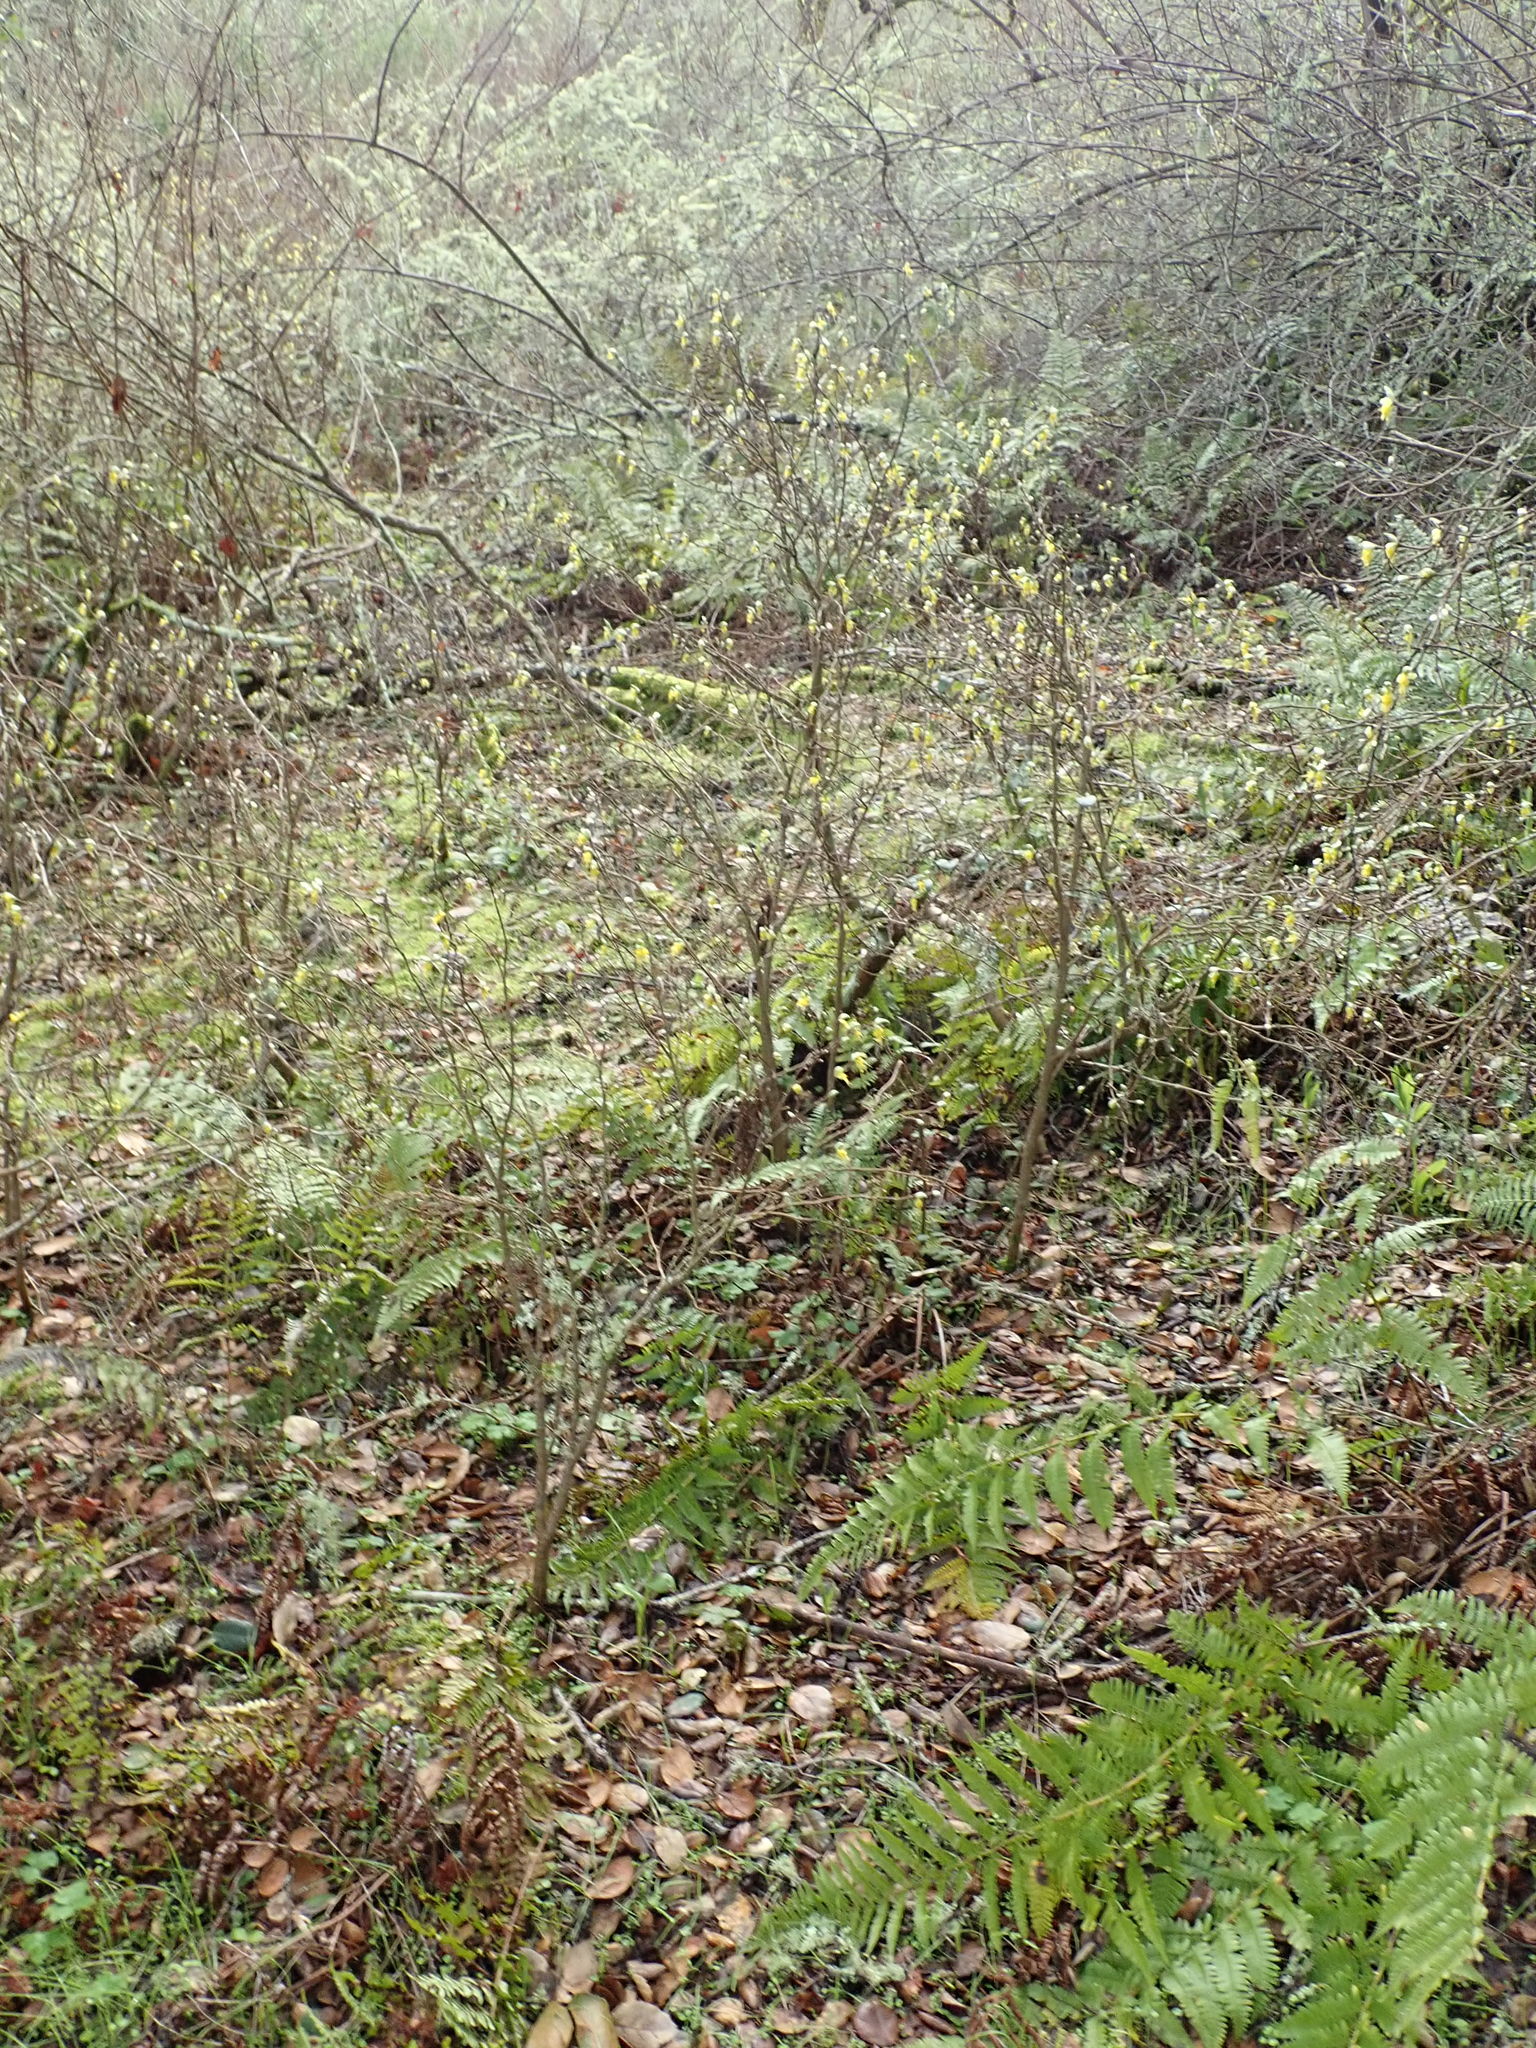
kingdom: Plantae
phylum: Tracheophyta
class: Magnoliopsida
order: Malvales
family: Thymelaeaceae
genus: Dirca
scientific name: Dirca occidentalis
